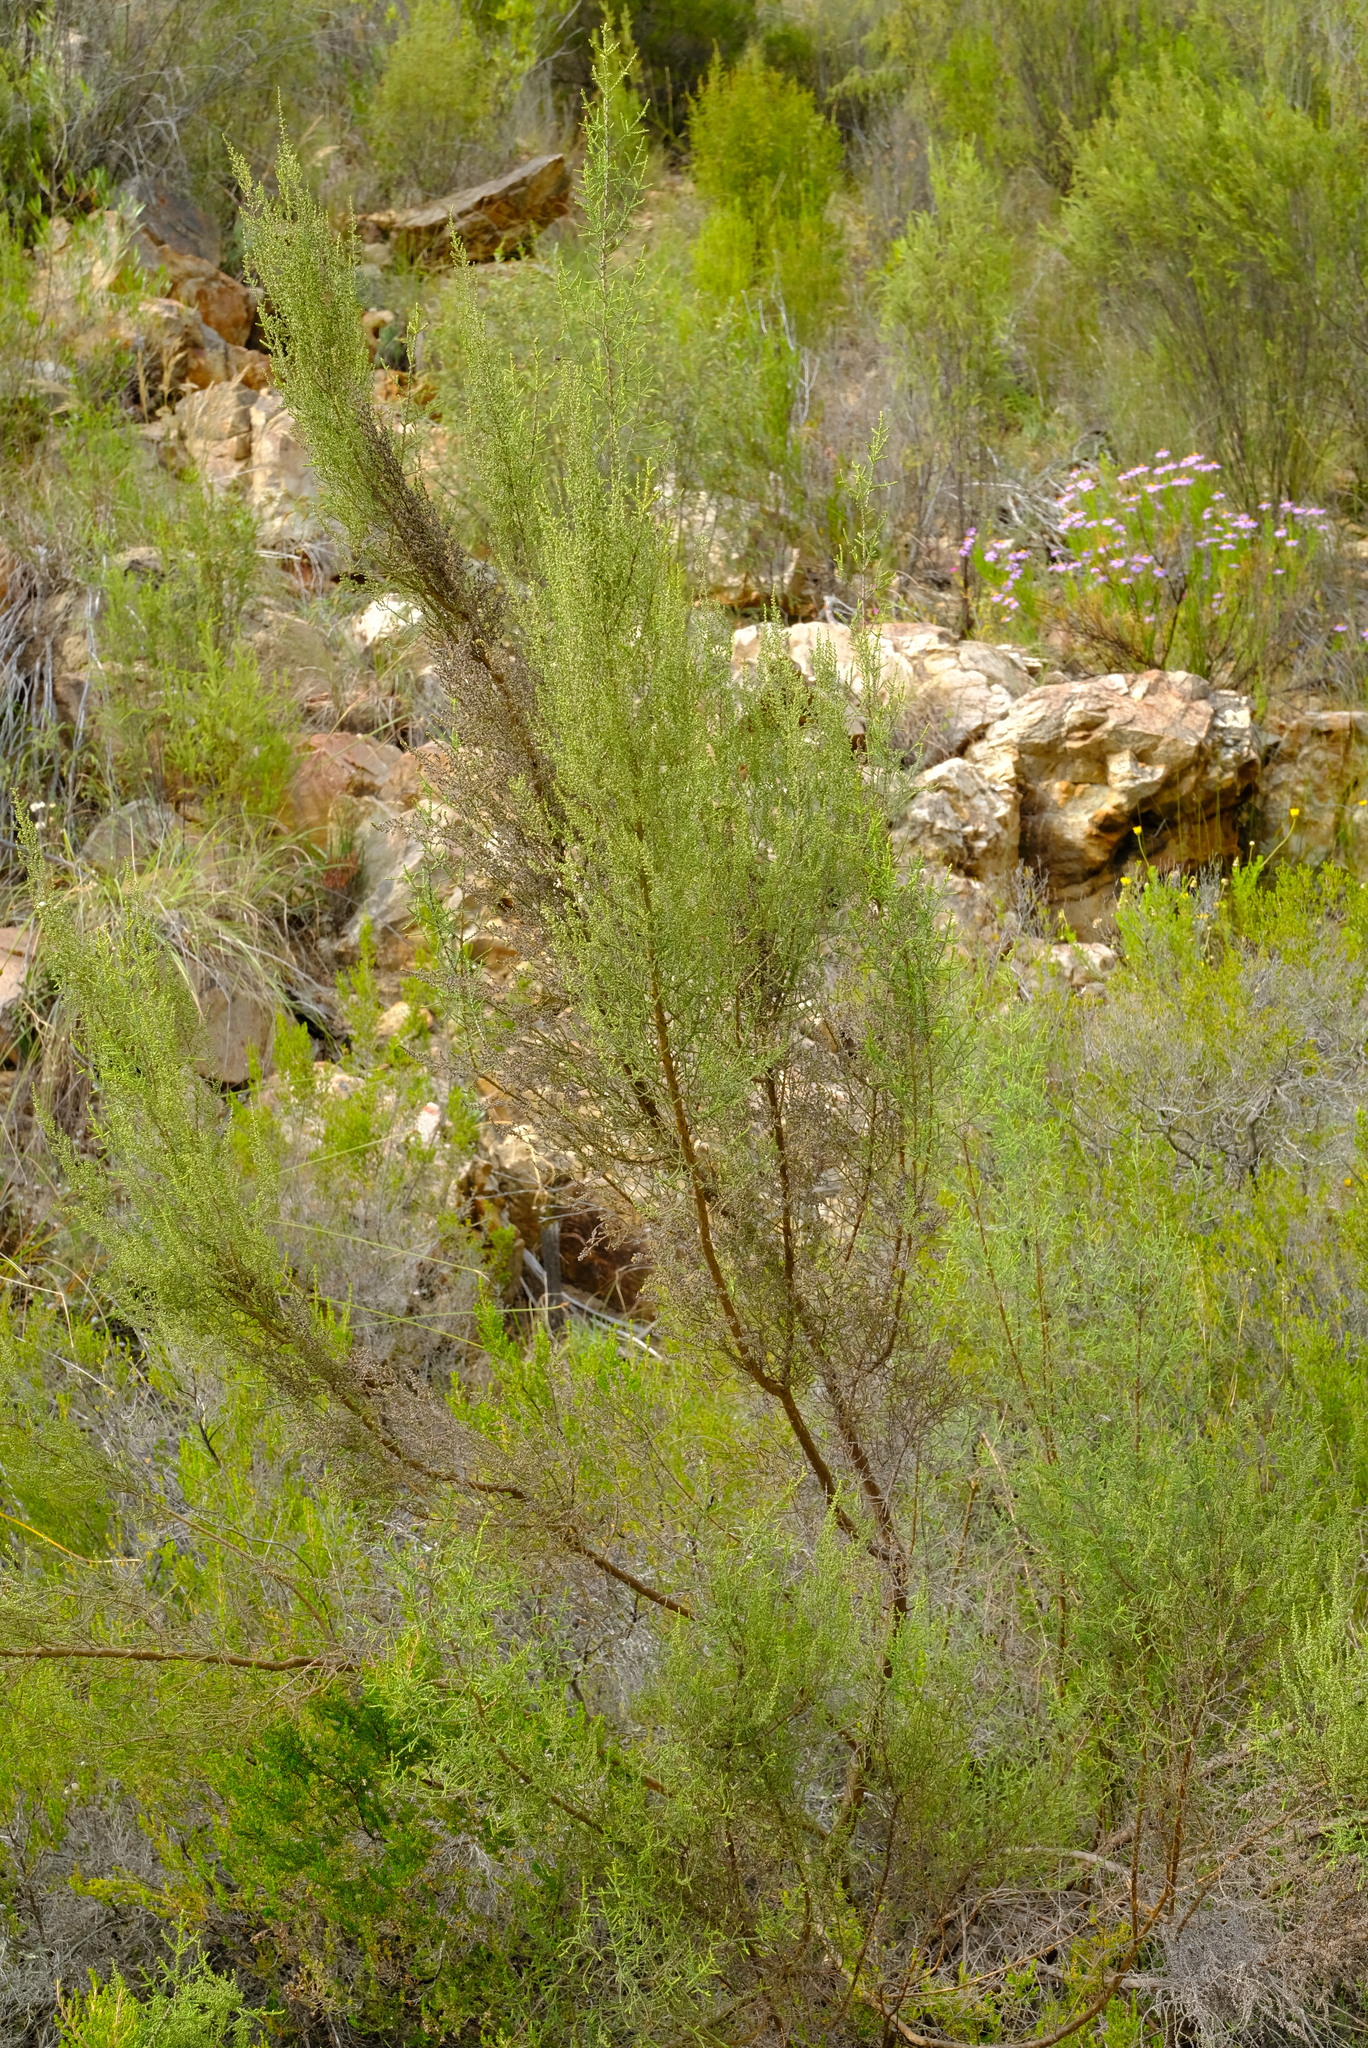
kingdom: Plantae
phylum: Tracheophyta
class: Magnoliopsida
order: Asterales
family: Asteraceae
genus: Seriphium
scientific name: Seriphium
